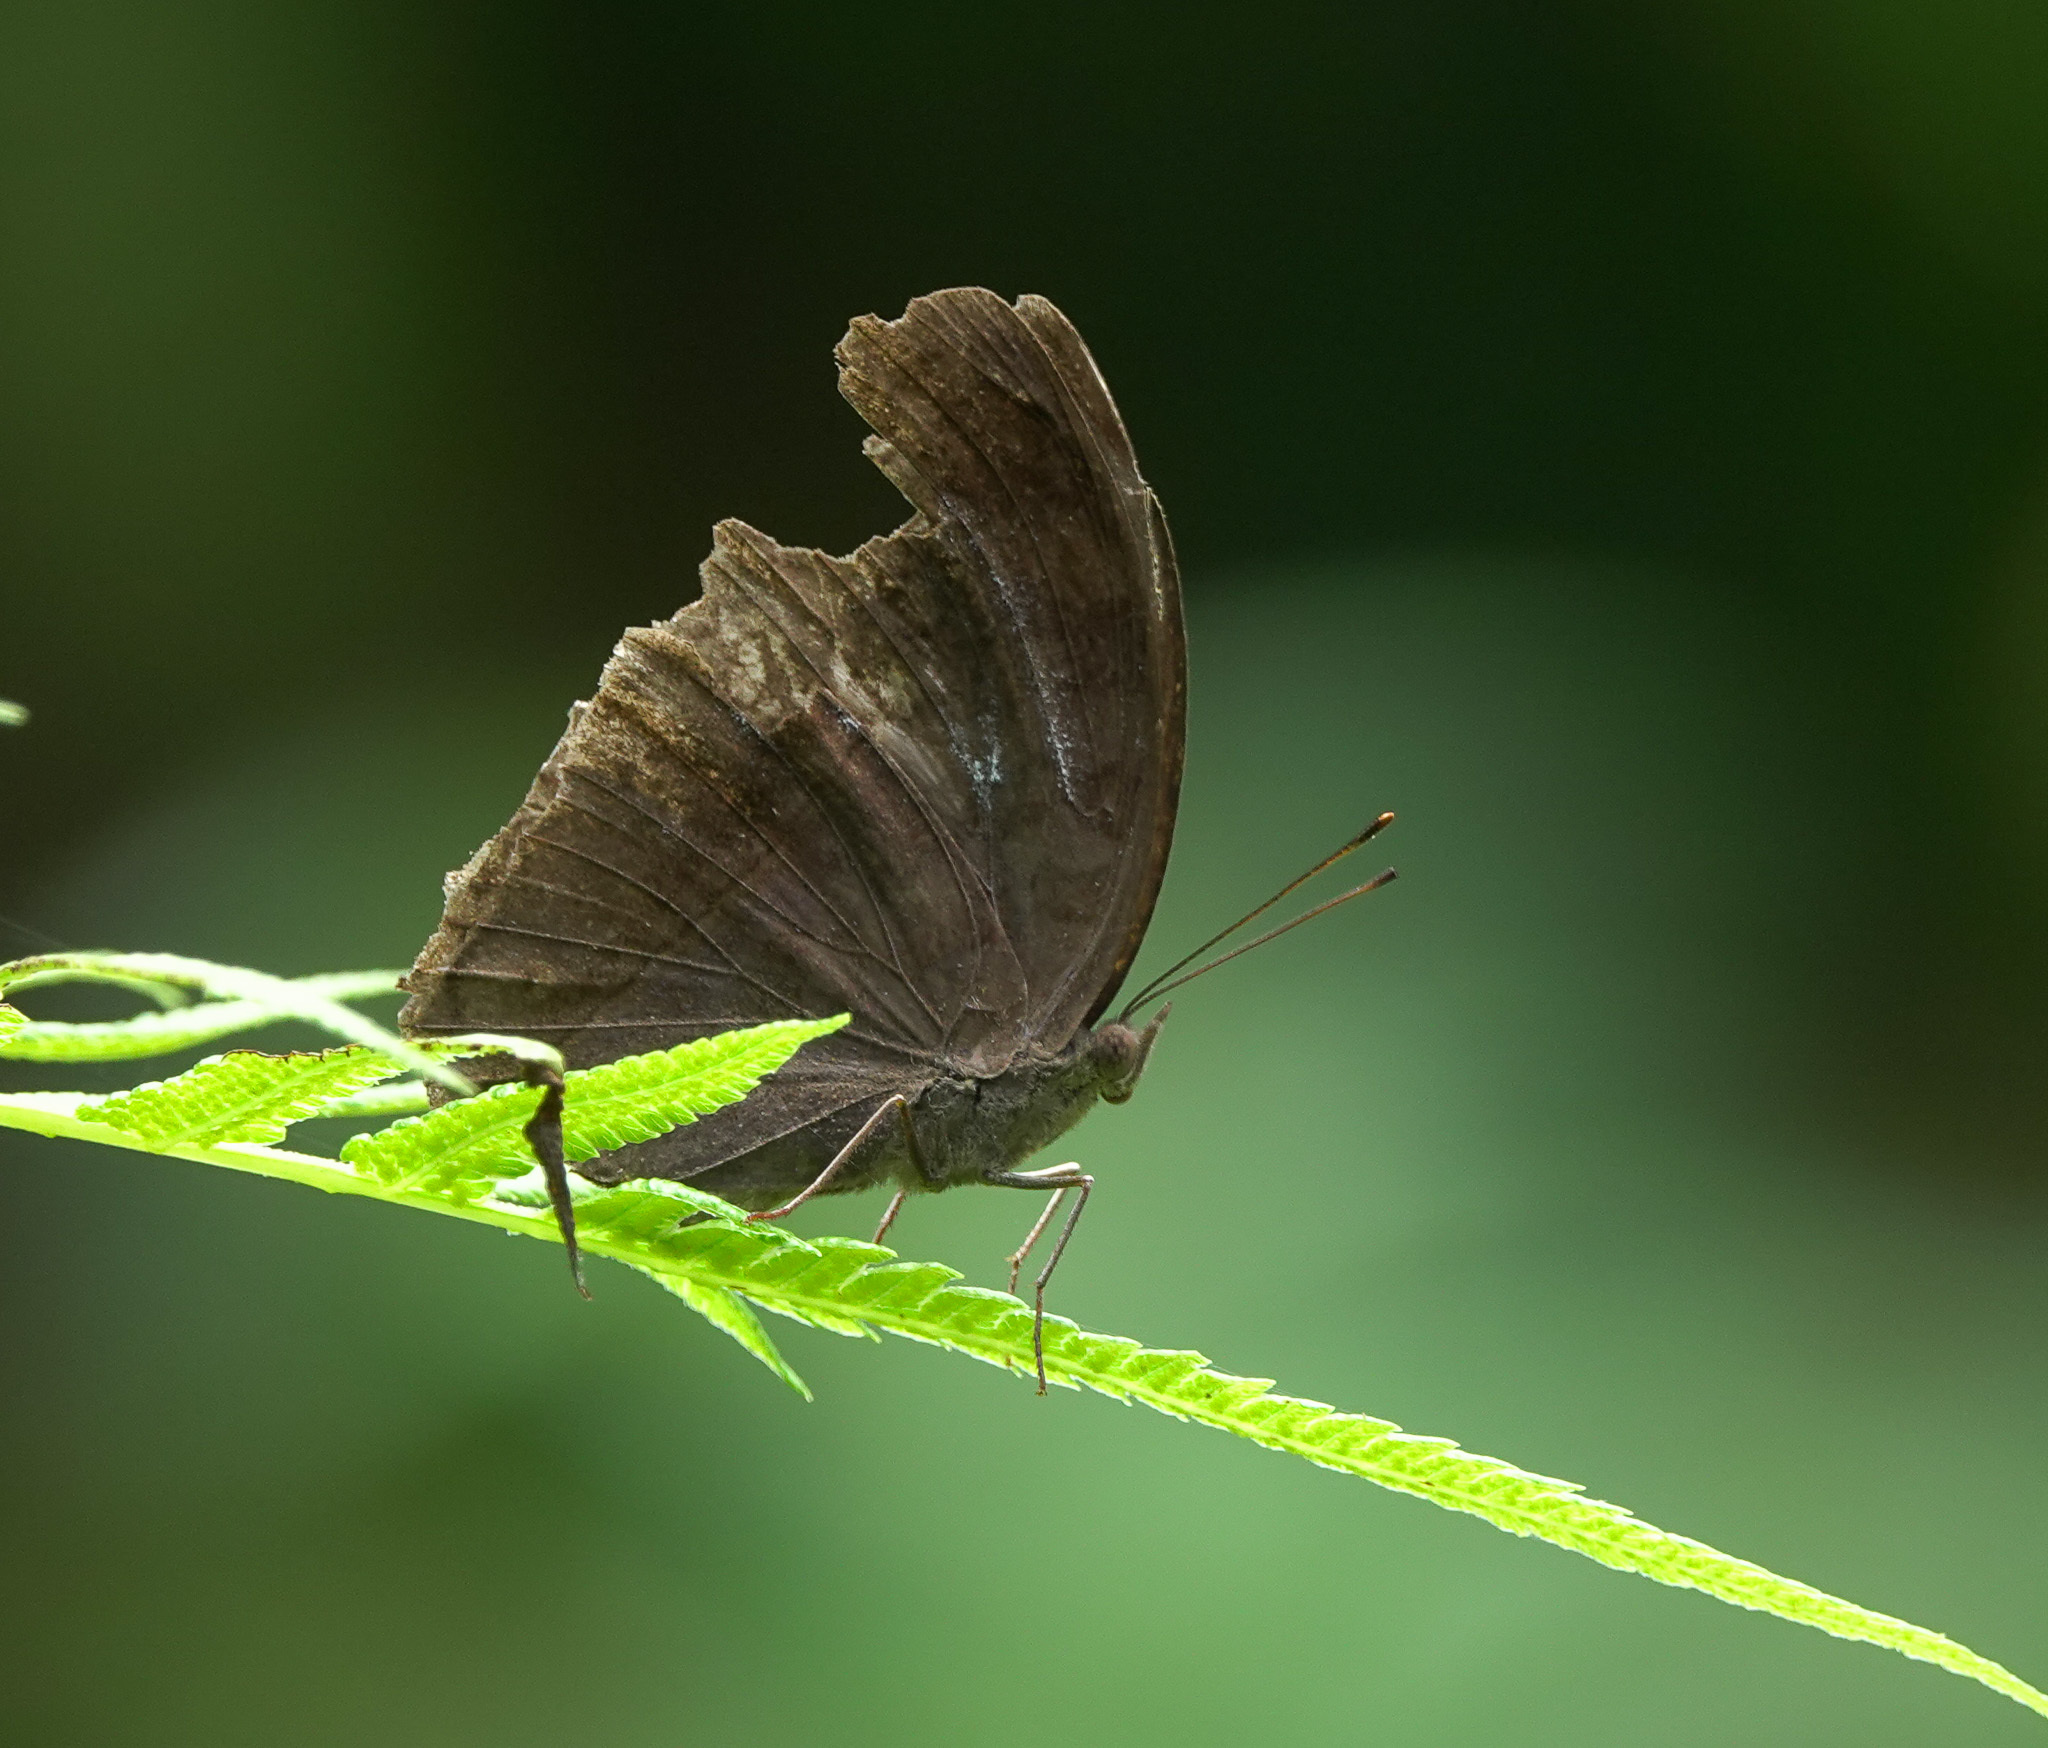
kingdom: Animalia
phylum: Arthropoda
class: Insecta
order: Lepidoptera
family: Nymphalidae
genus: Junonia
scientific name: Junonia iphita
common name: Chocolate pansy
